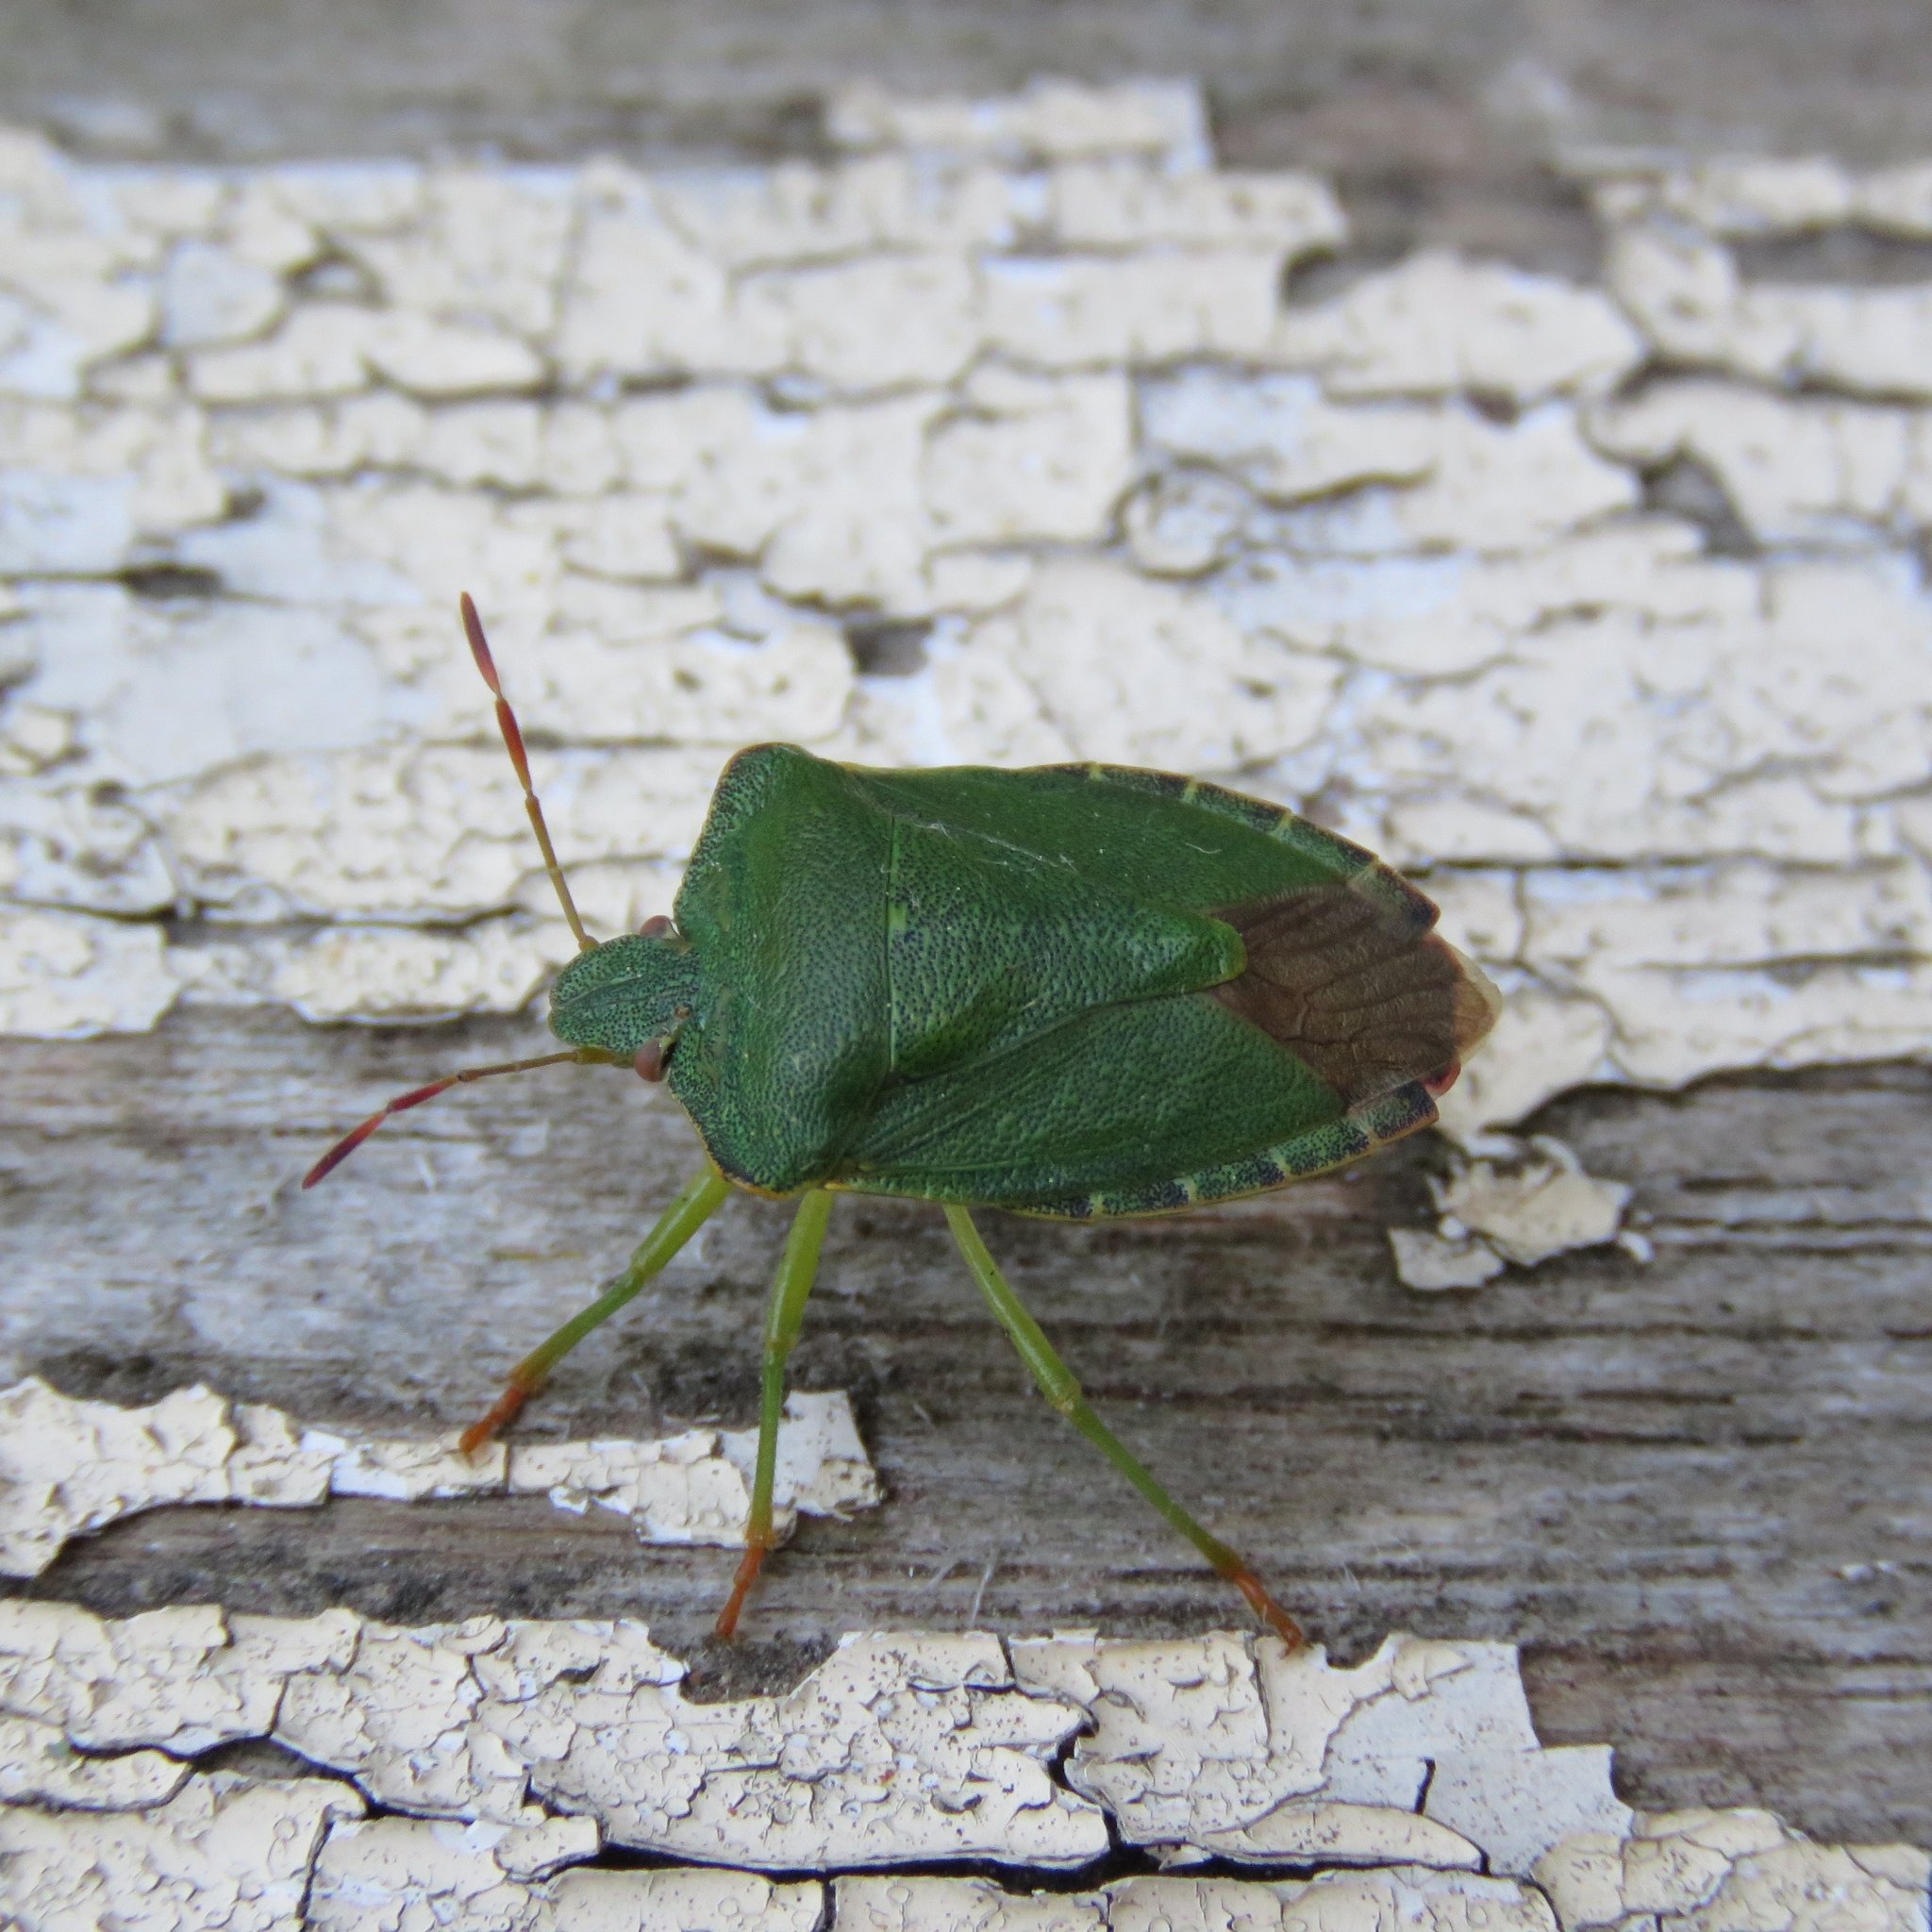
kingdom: Animalia
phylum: Arthropoda
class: Insecta
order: Hemiptera
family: Pentatomidae
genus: Palomena
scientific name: Palomena prasina
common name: Green shieldbug
